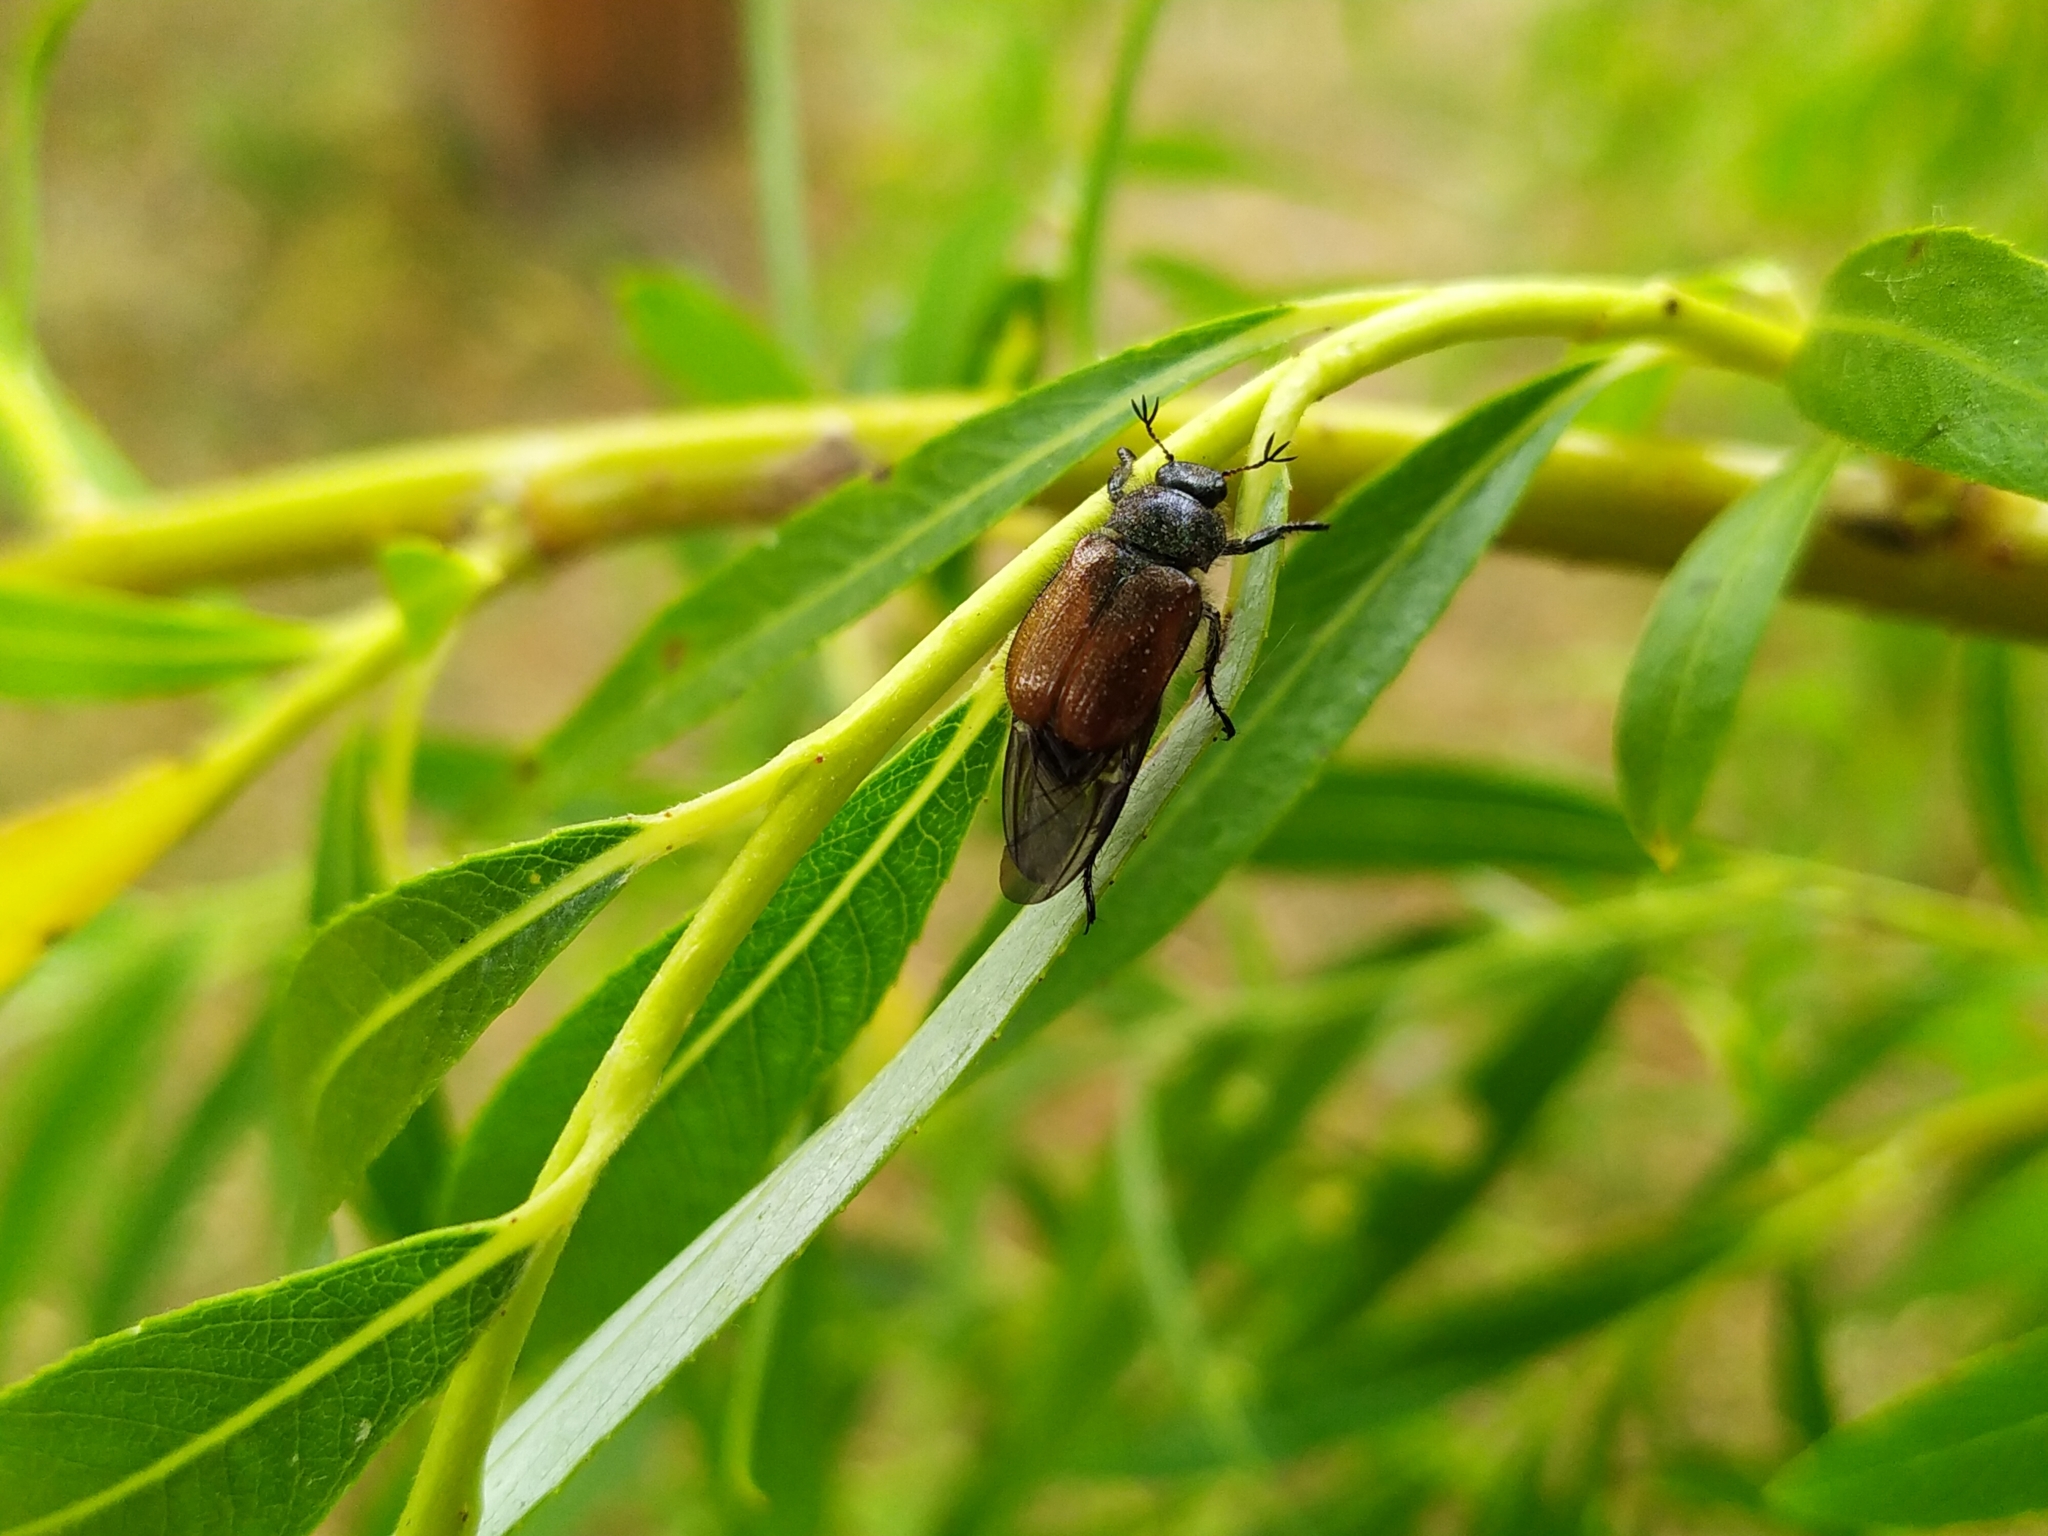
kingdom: Animalia
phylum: Arthropoda
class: Insecta
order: Coleoptera
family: Scarabaeidae
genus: Phyllopertha
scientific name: Phyllopertha horticola
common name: Garden chafer
